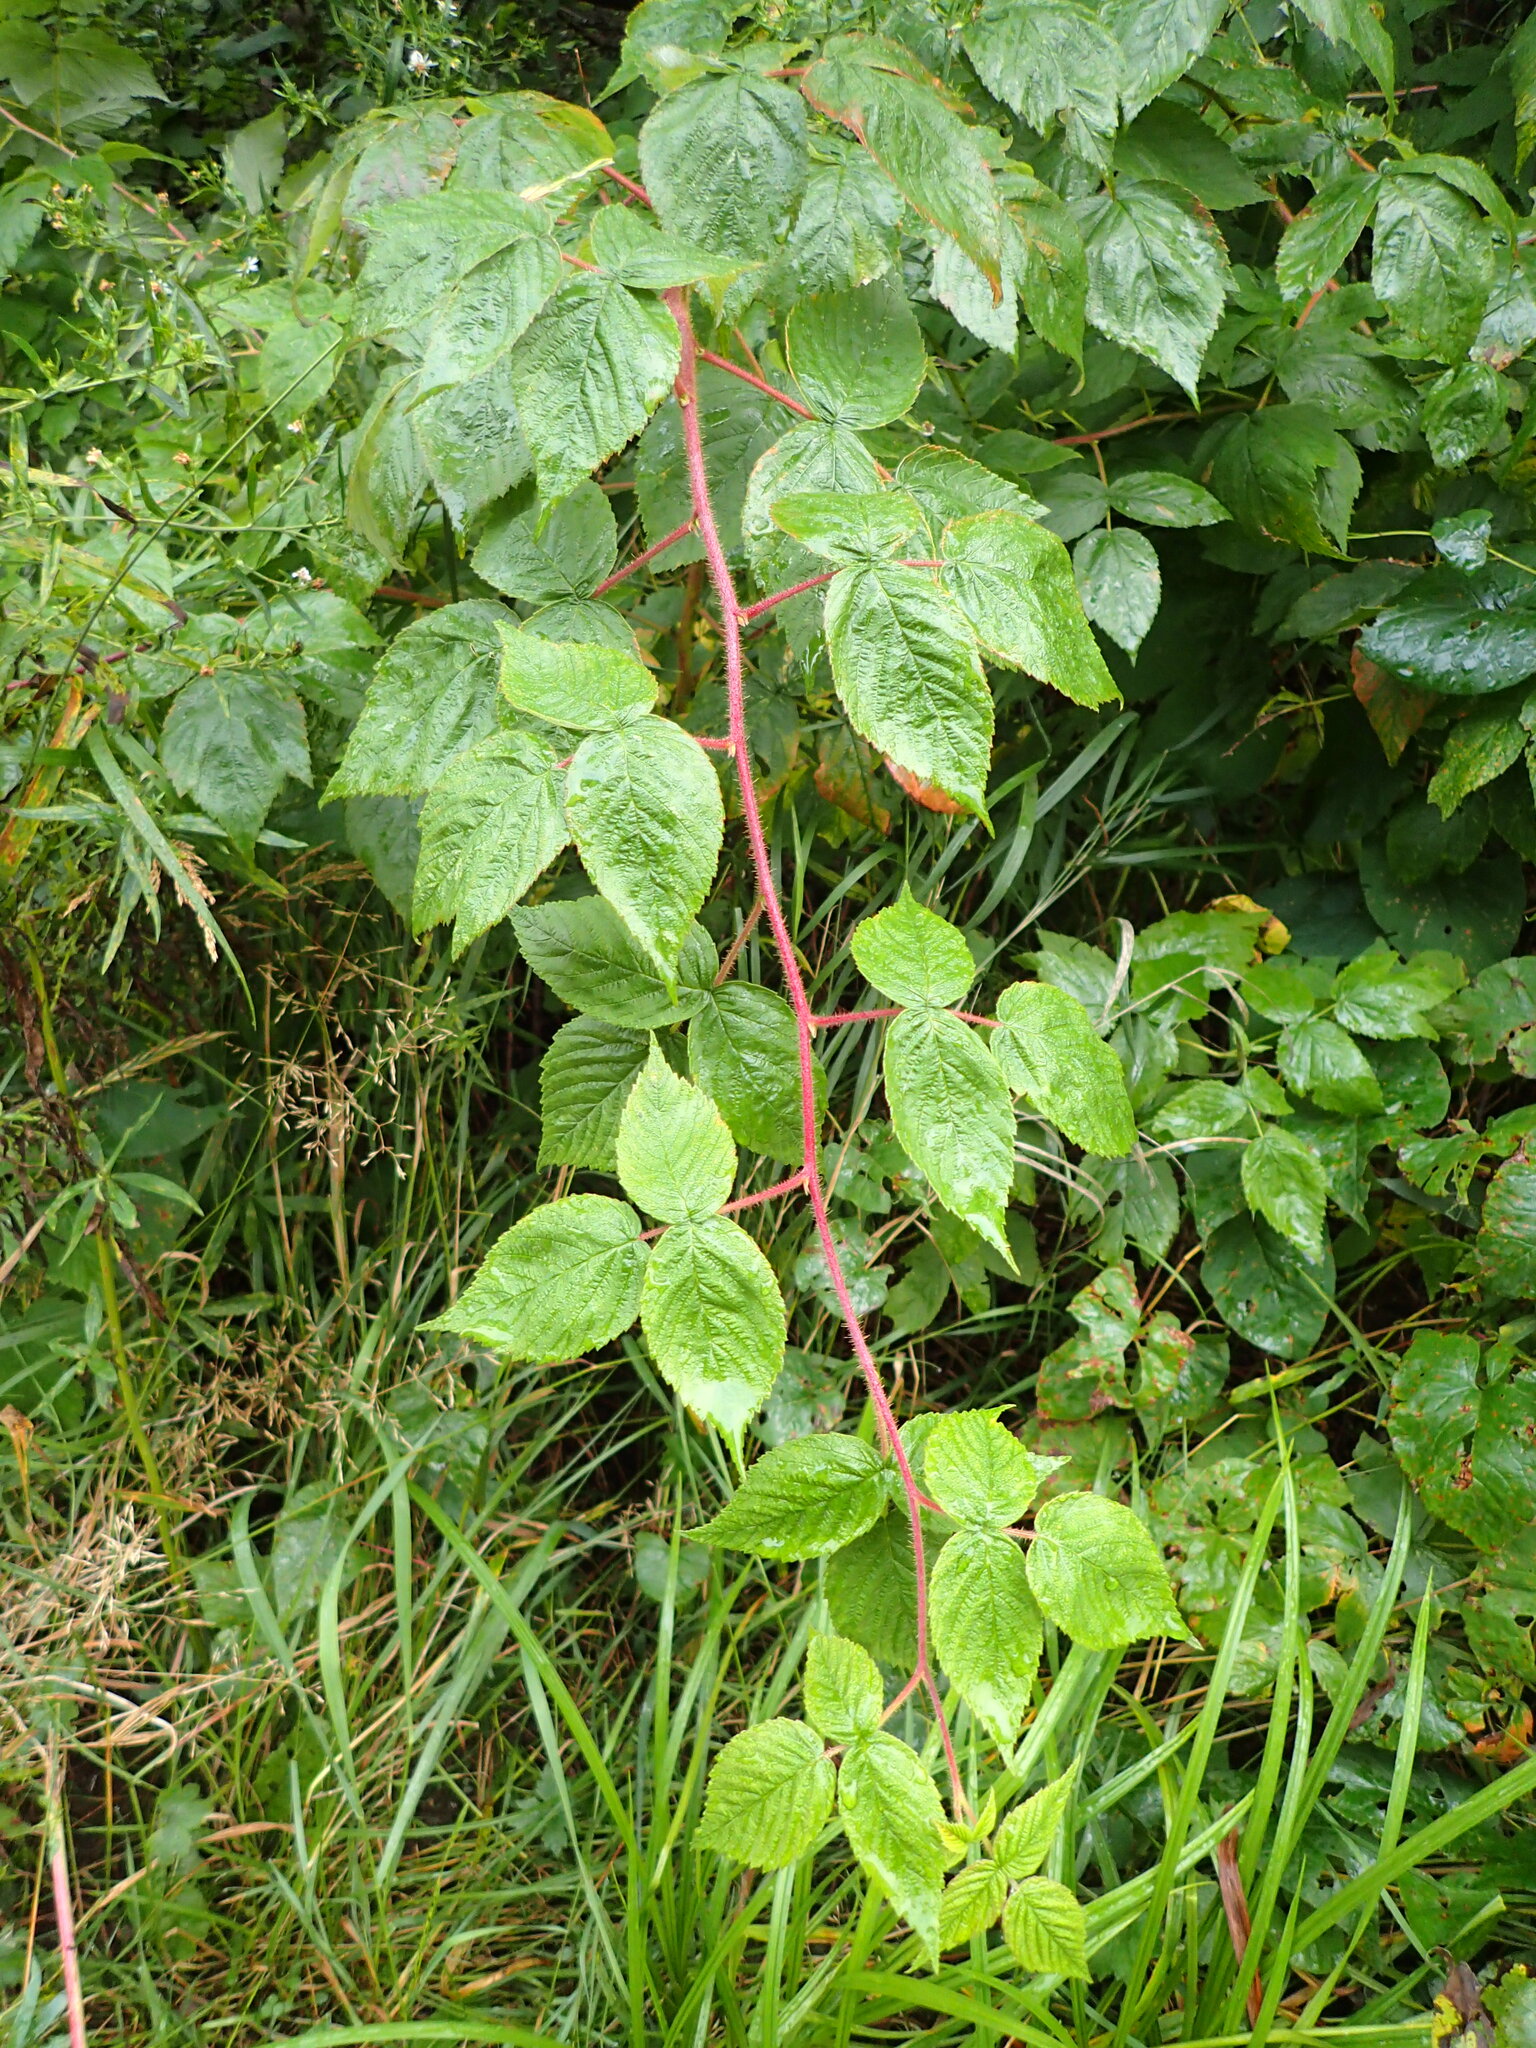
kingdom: Plantae
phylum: Tracheophyta
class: Magnoliopsida
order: Rosales
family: Rosaceae
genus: Rubus
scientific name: Rubus idaeus
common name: Raspberry
